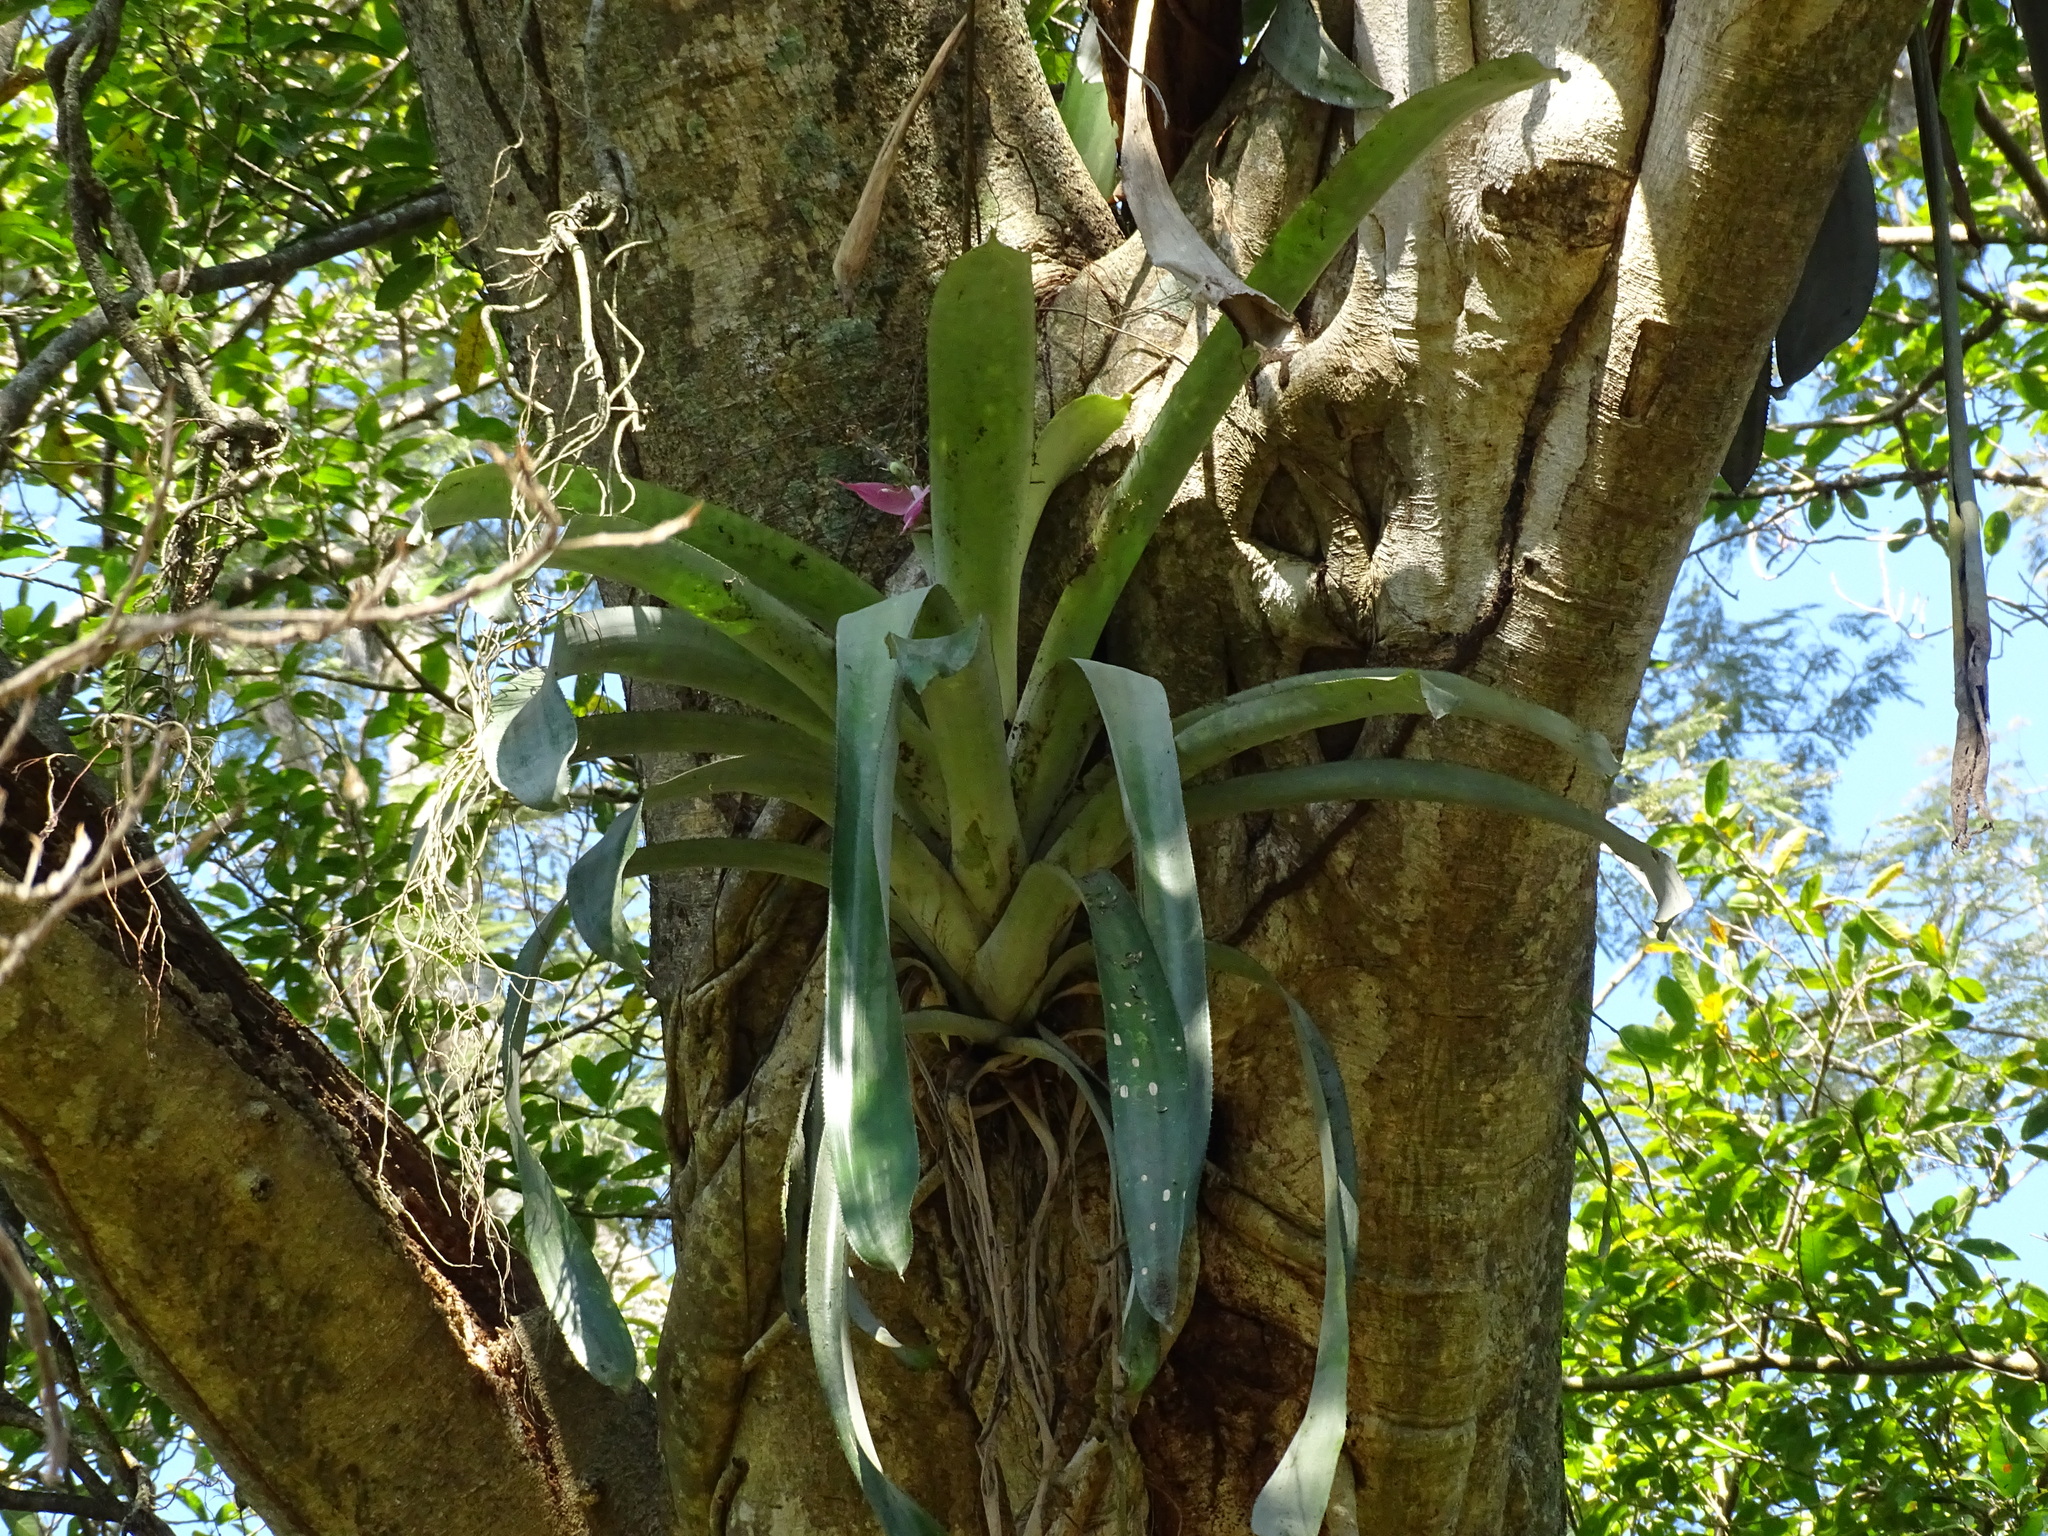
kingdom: Plantae
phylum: Tracheophyta
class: Liliopsida
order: Poales
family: Bromeliaceae
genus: Aechmea
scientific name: Aechmea matudae
